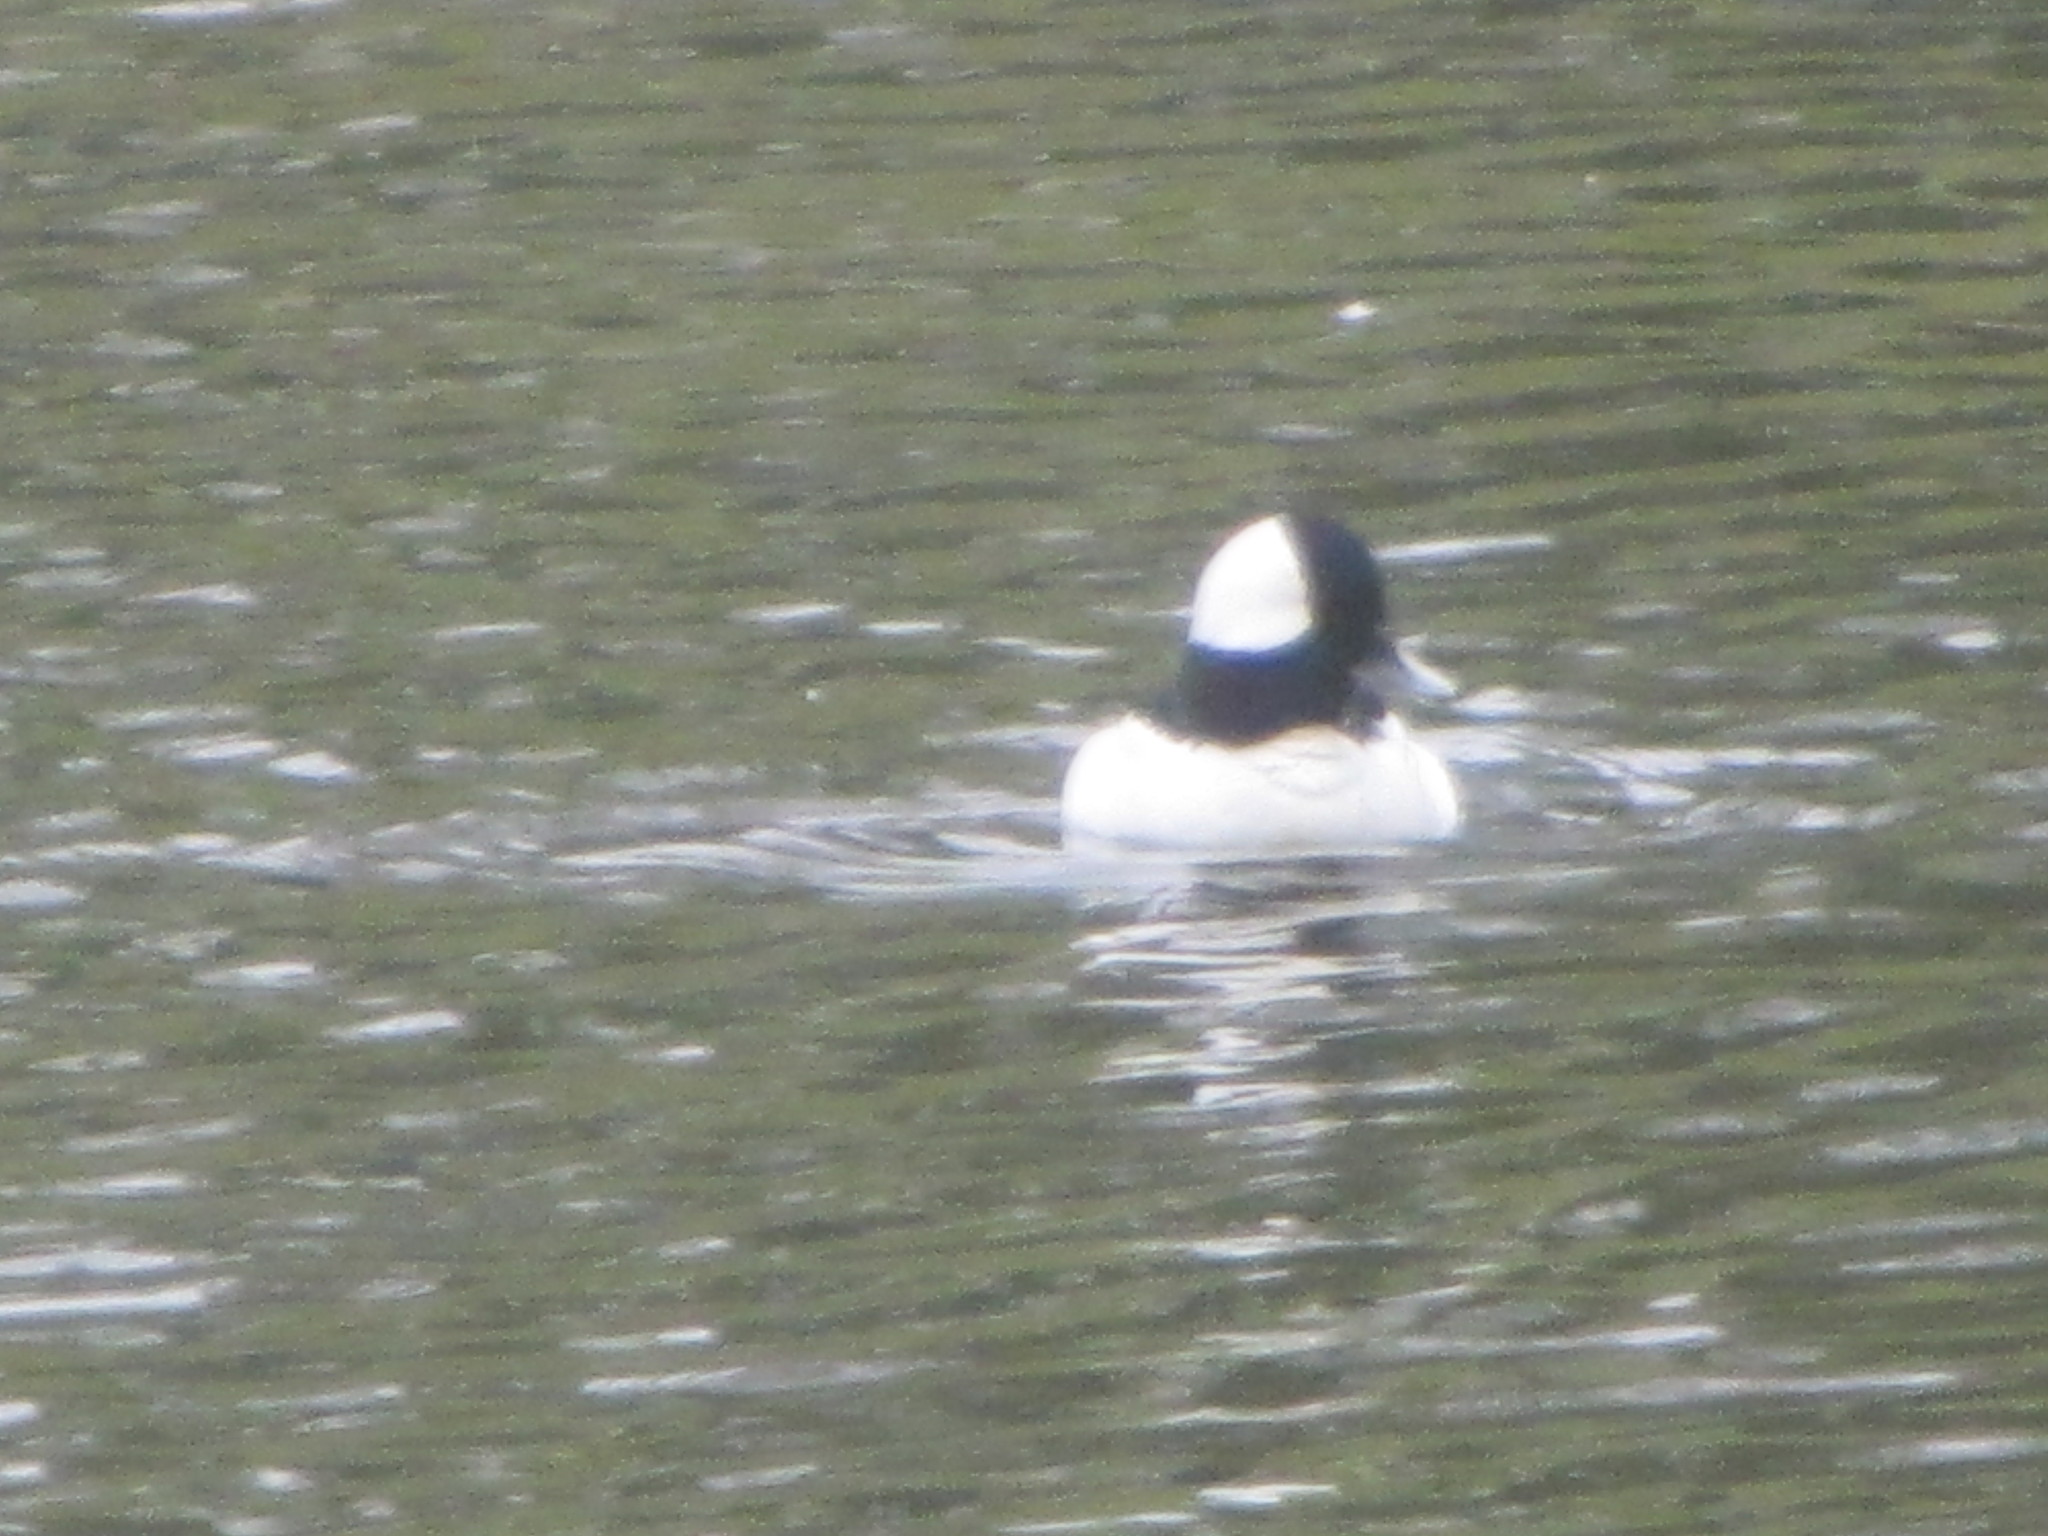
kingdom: Animalia
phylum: Chordata
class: Aves
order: Anseriformes
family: Anatidae
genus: Bucephala
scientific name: Bucephala albeola
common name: Bufflehead
